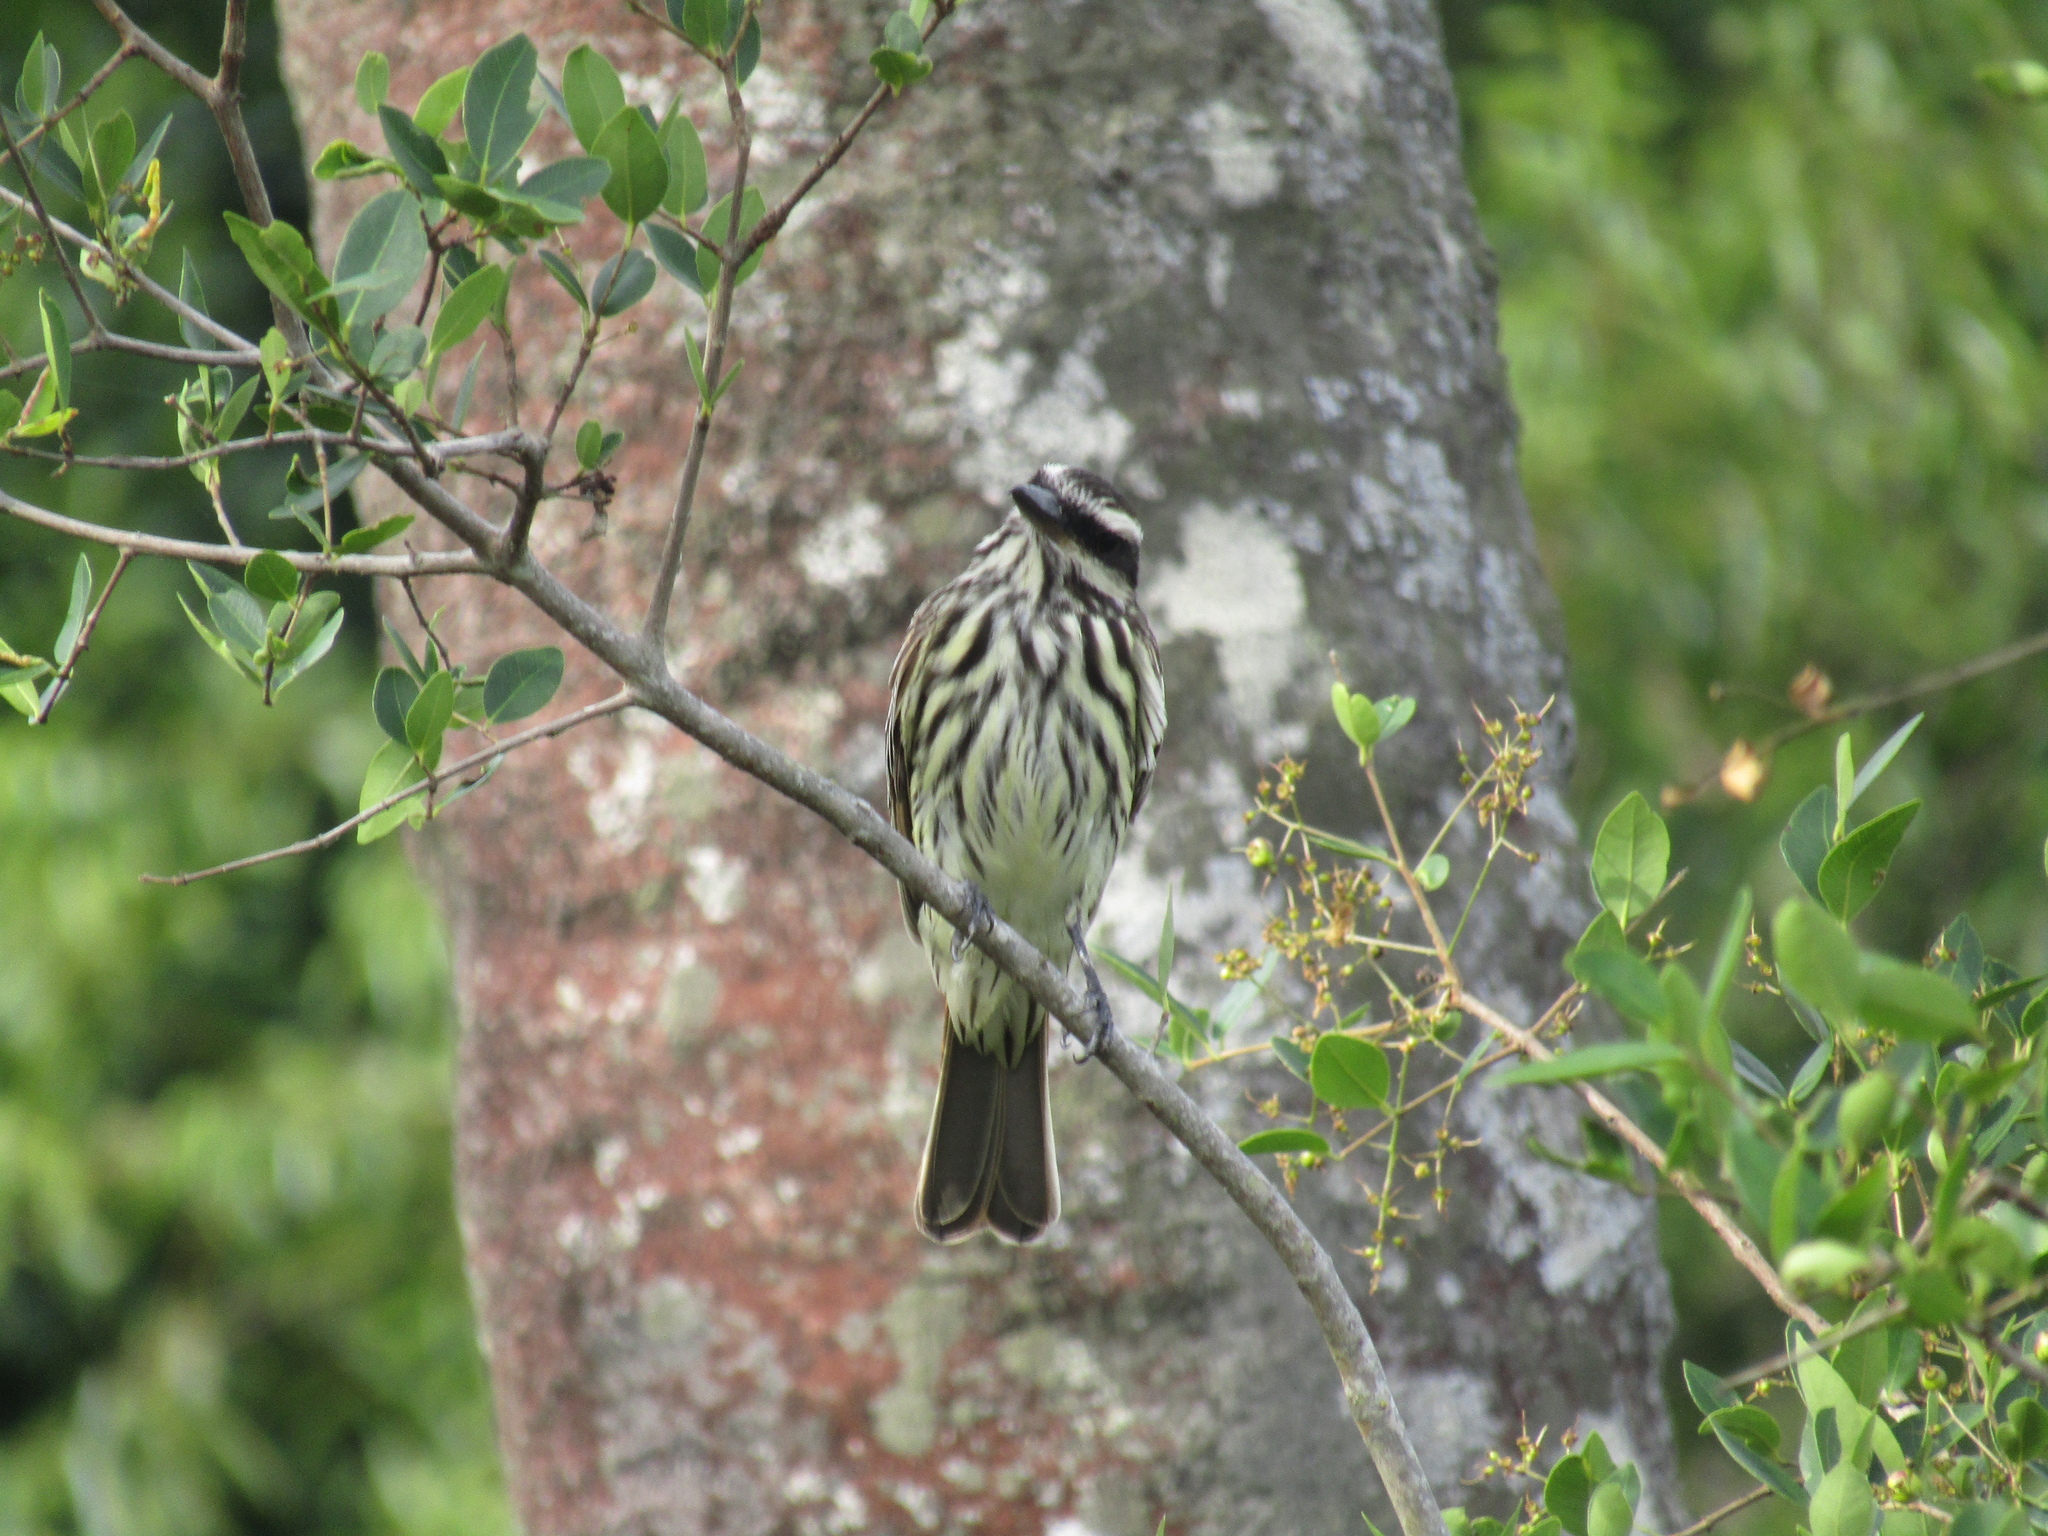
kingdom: Animalia
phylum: Chordata
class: Aves
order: Passeriformes
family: Tyrannidae
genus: Myiodynastes
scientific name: Myiodynastes maculatus
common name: Streaked flycatcher
